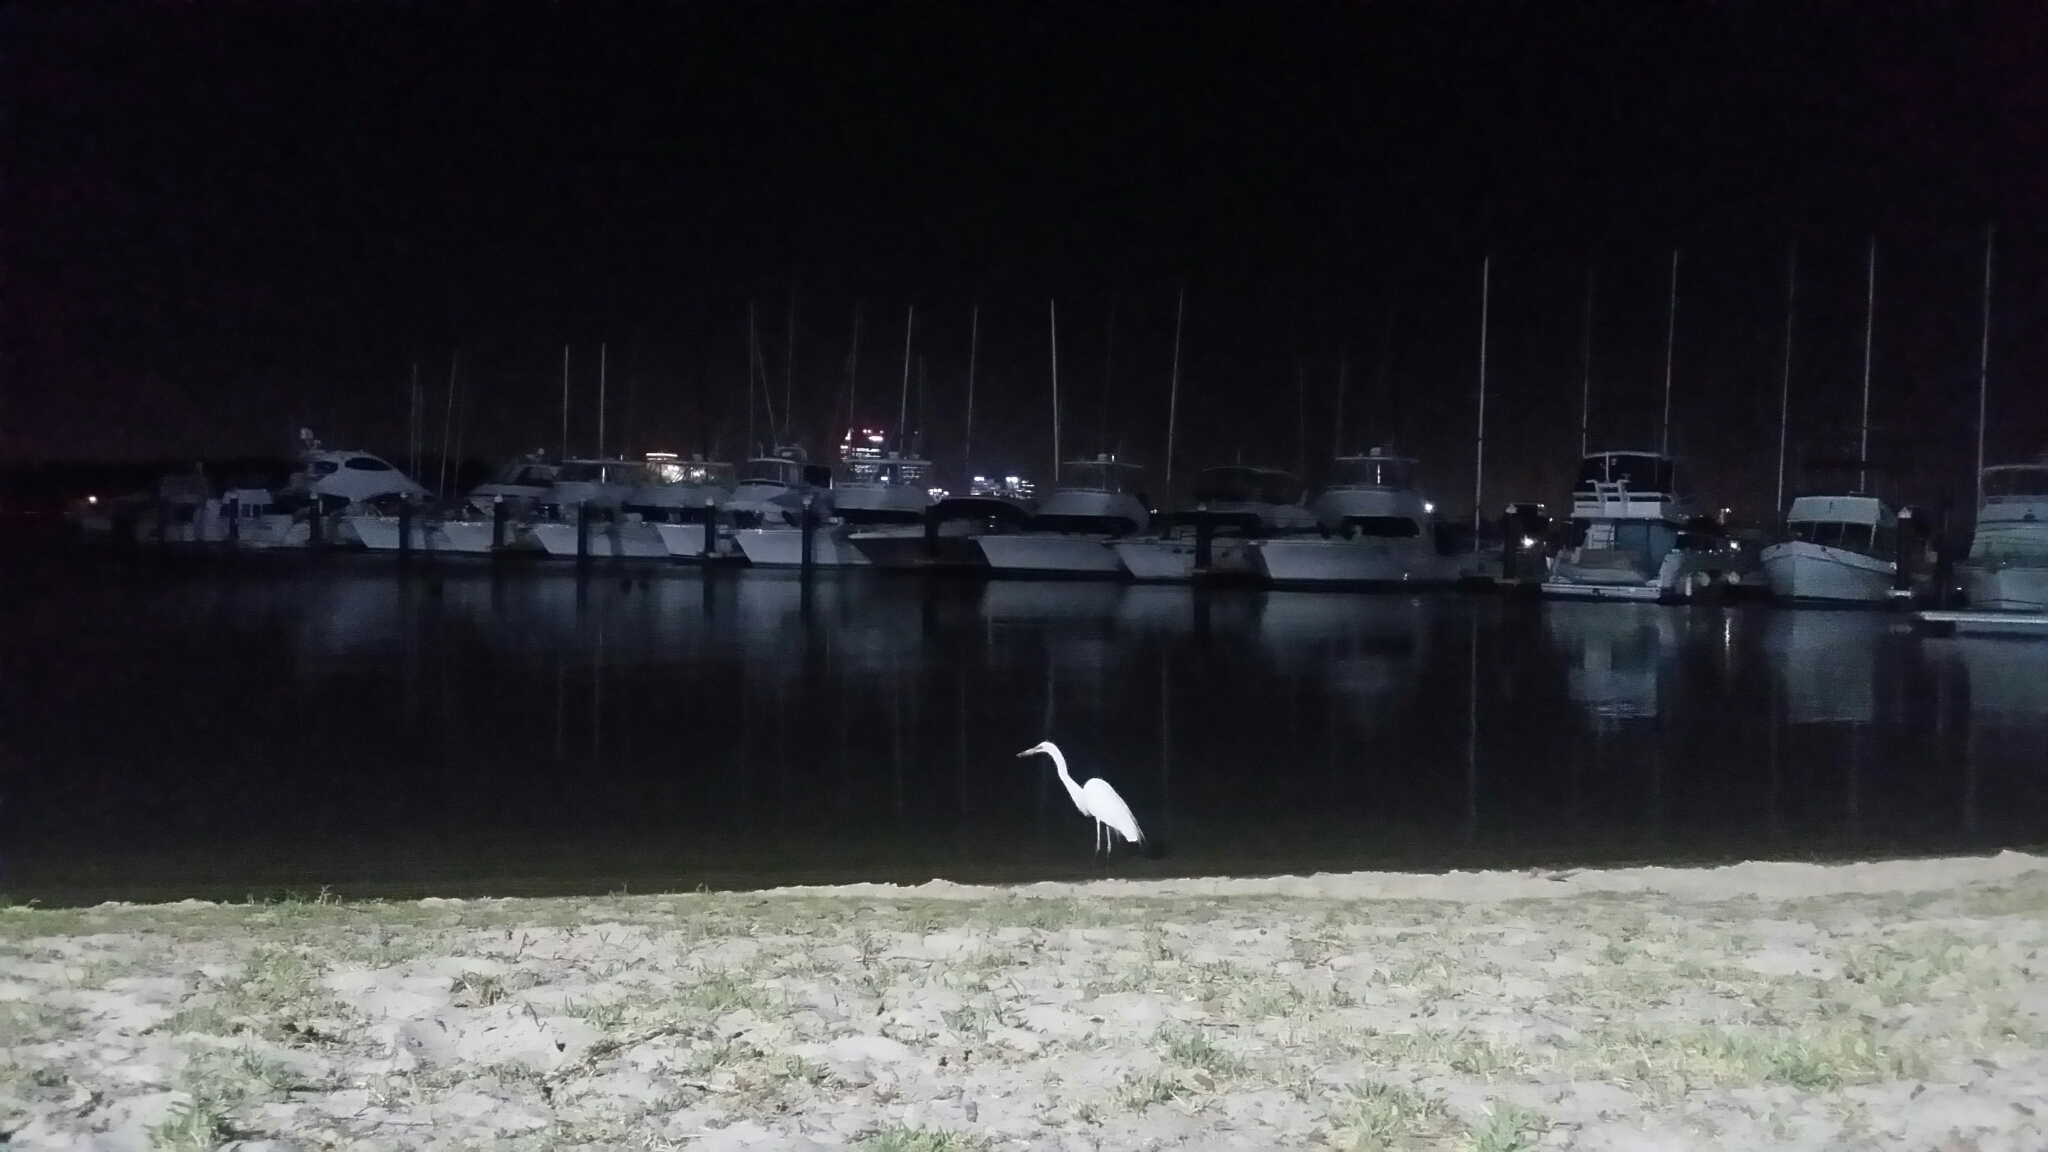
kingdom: Animalia
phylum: Chordata
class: Aves
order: Pelecaniformes
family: Ardeidae
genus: Ardea
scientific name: Ardea modesta
